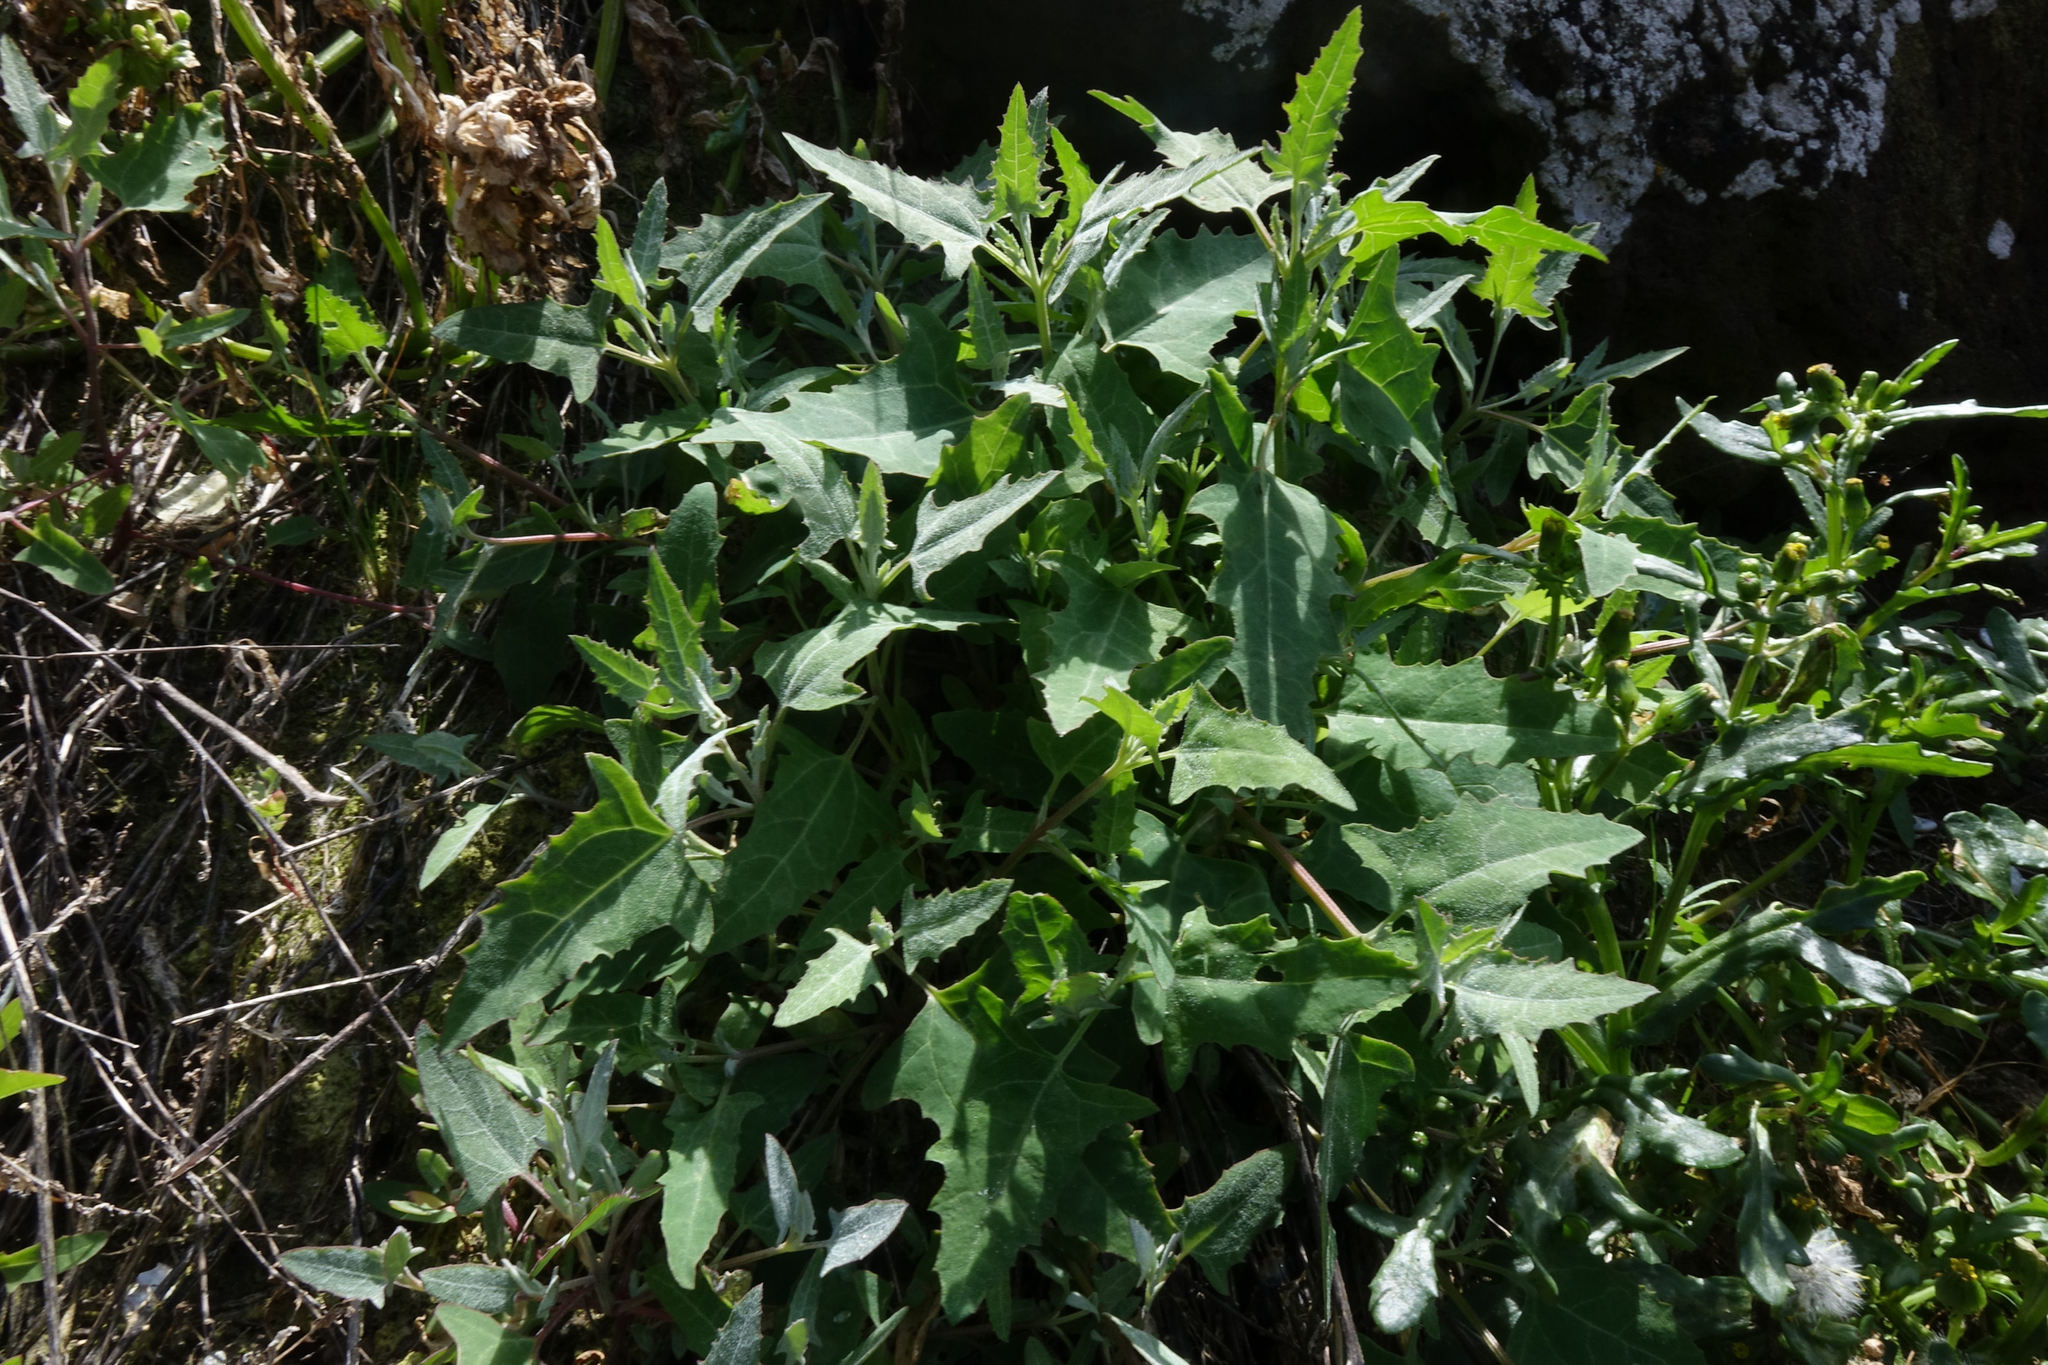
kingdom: Plantae
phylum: Tracheophyta
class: Magnoliopsida
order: Caryophyllales
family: Amaranthaceae
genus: Atriplex
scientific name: Atriplex prostrata
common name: Spear-leaved orache
